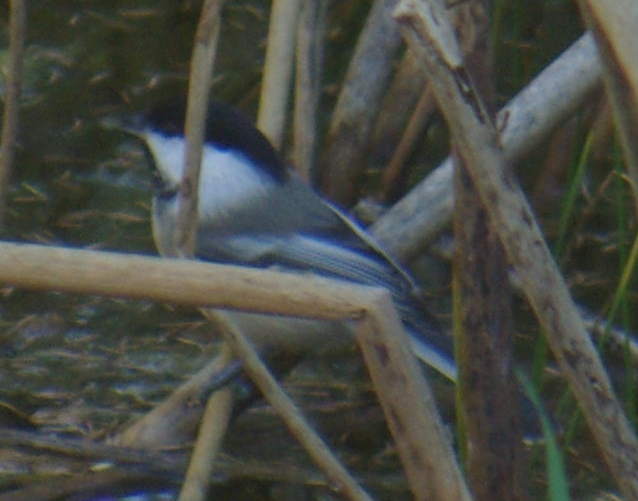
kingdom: Animalia
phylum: Chordata
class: Aves
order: Passeriformes
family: Paridae
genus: Poecile
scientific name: Poecile atricapillus
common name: Black-capped chickadee
